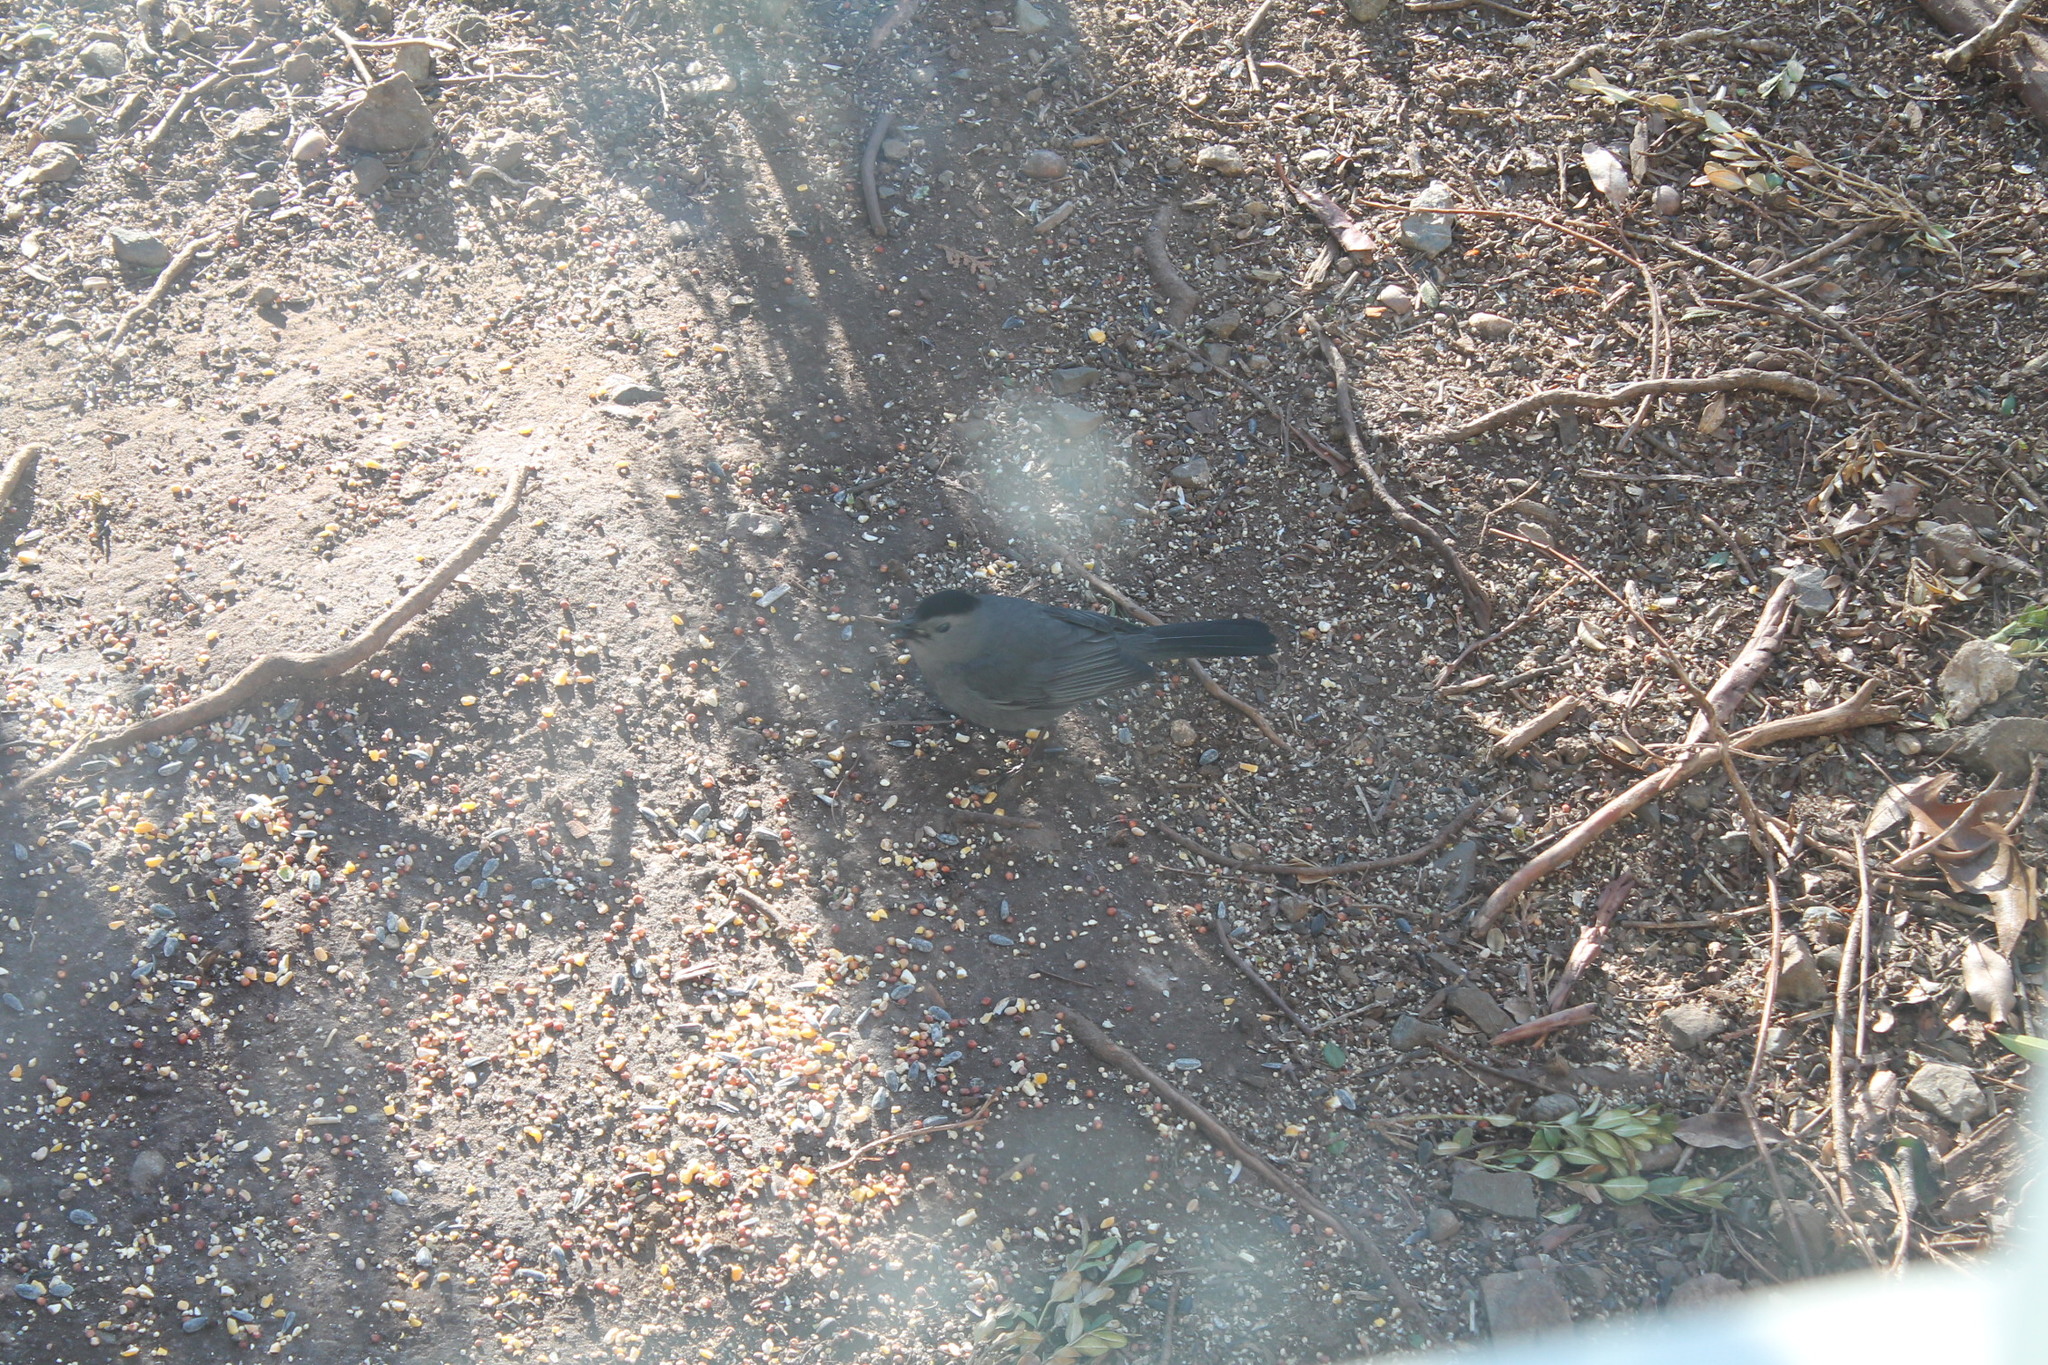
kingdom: Animalia
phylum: Chordata
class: Aves
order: Passeriformes
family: Mimidae
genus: Dumetella
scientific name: Dumetella carolinensis
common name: Gray catbird
